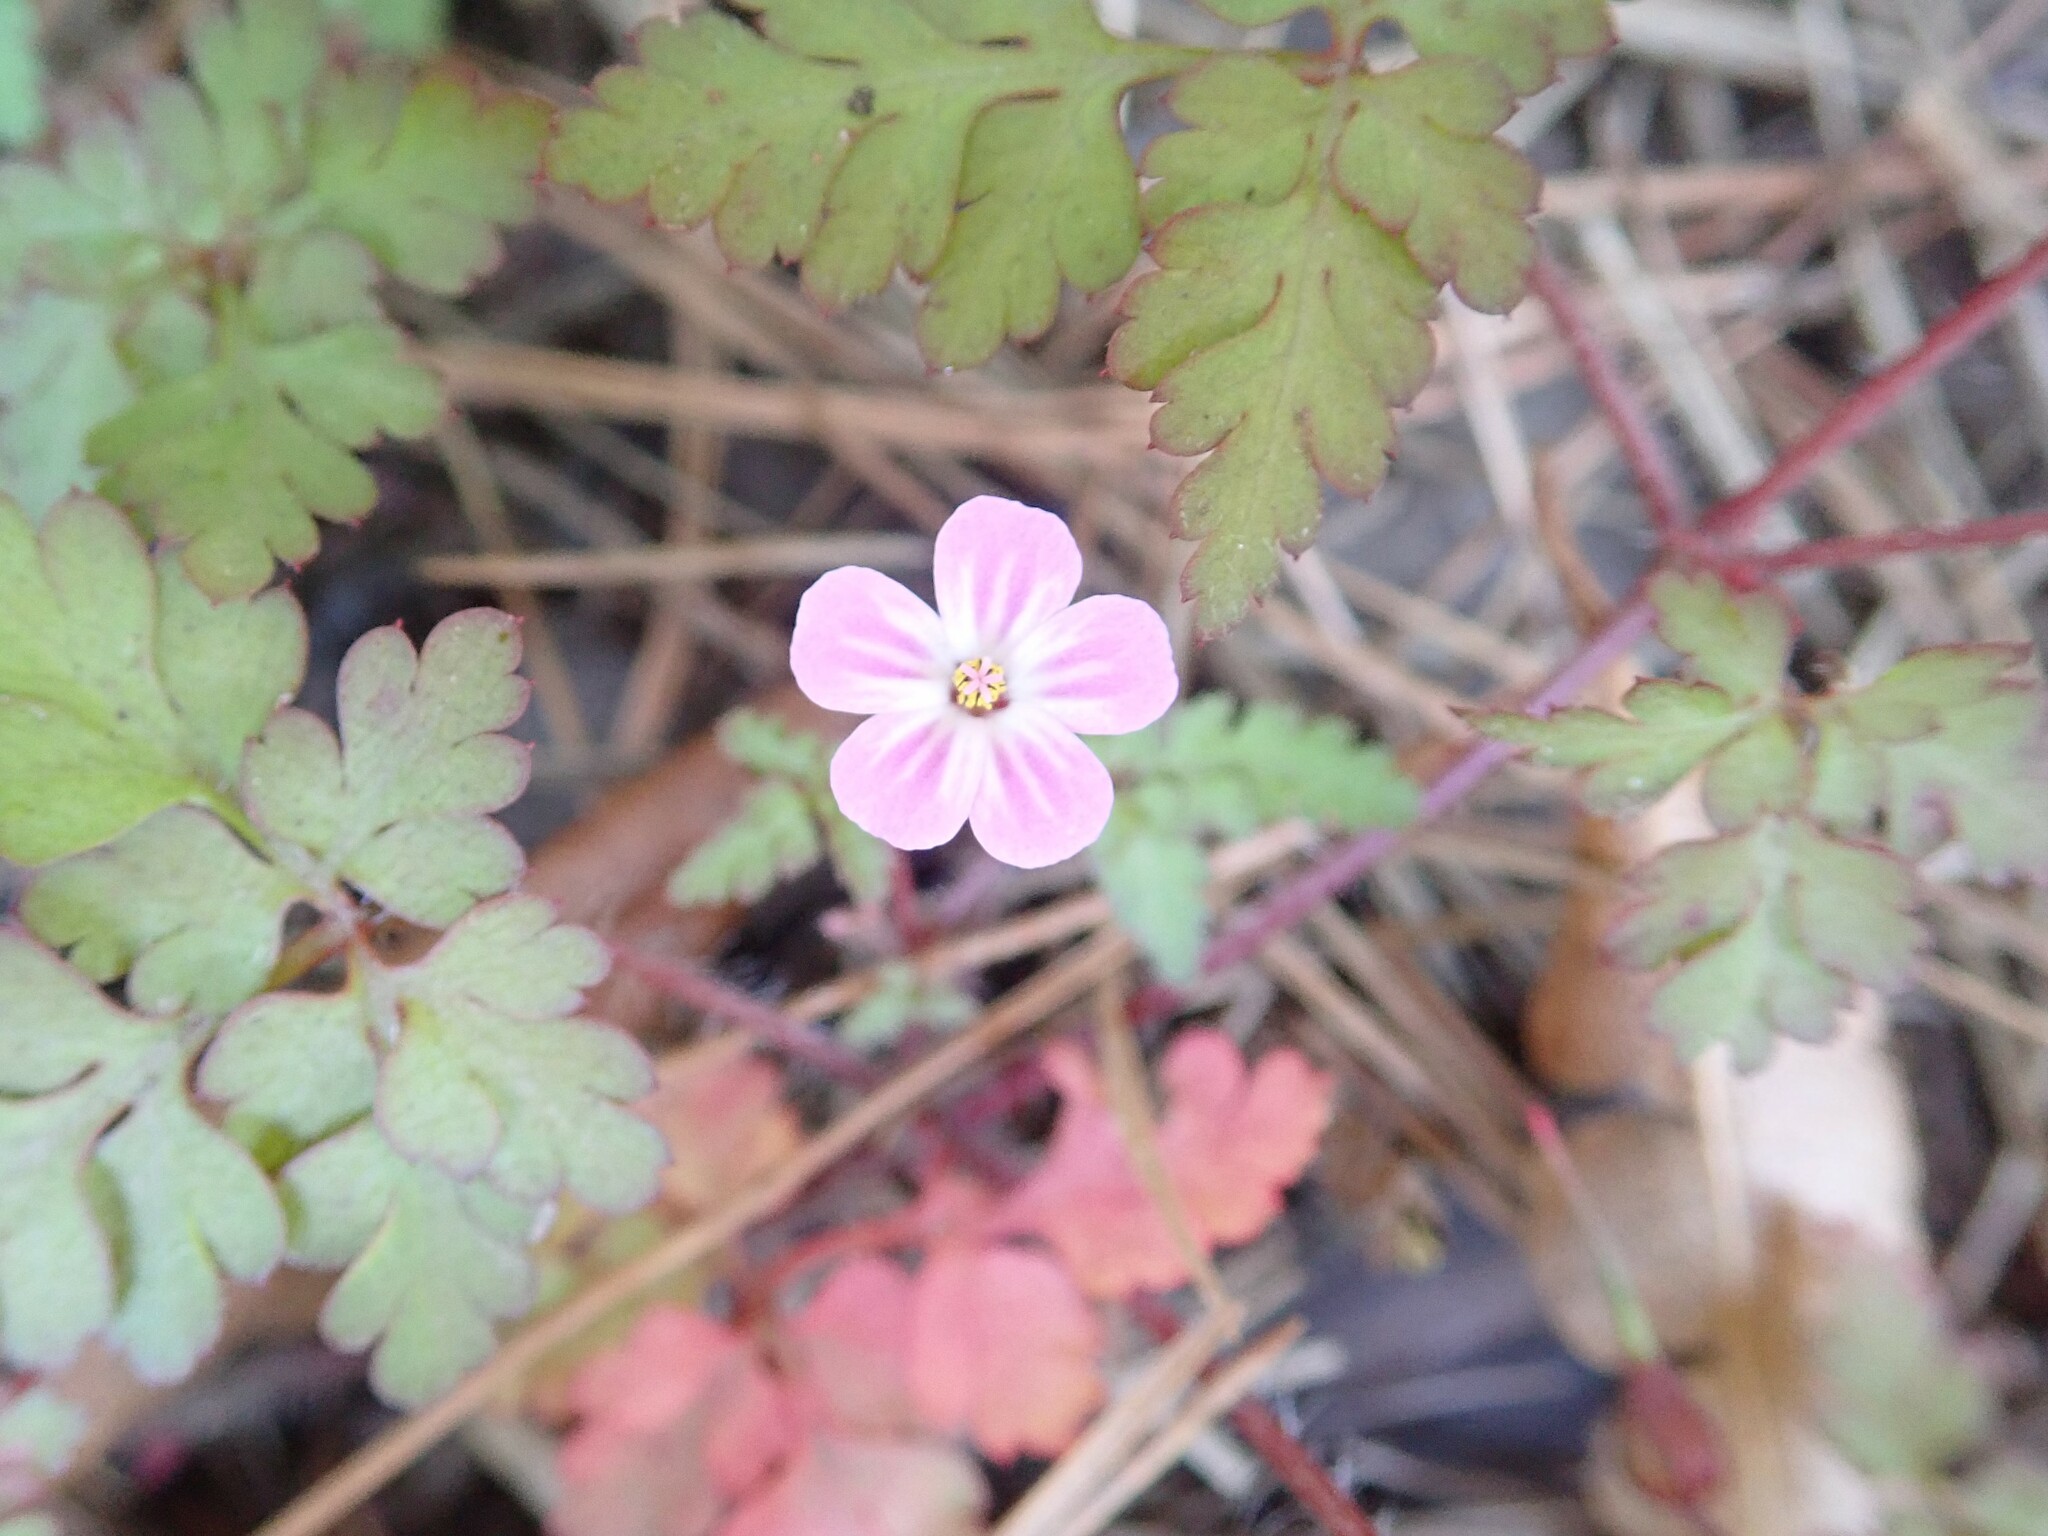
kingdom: Plantae
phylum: Tracheophyta
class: Magnoliopsida
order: Geraniales
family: Geraniaceae
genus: Geranium
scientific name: Geranium robertianum
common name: Herb-robert
